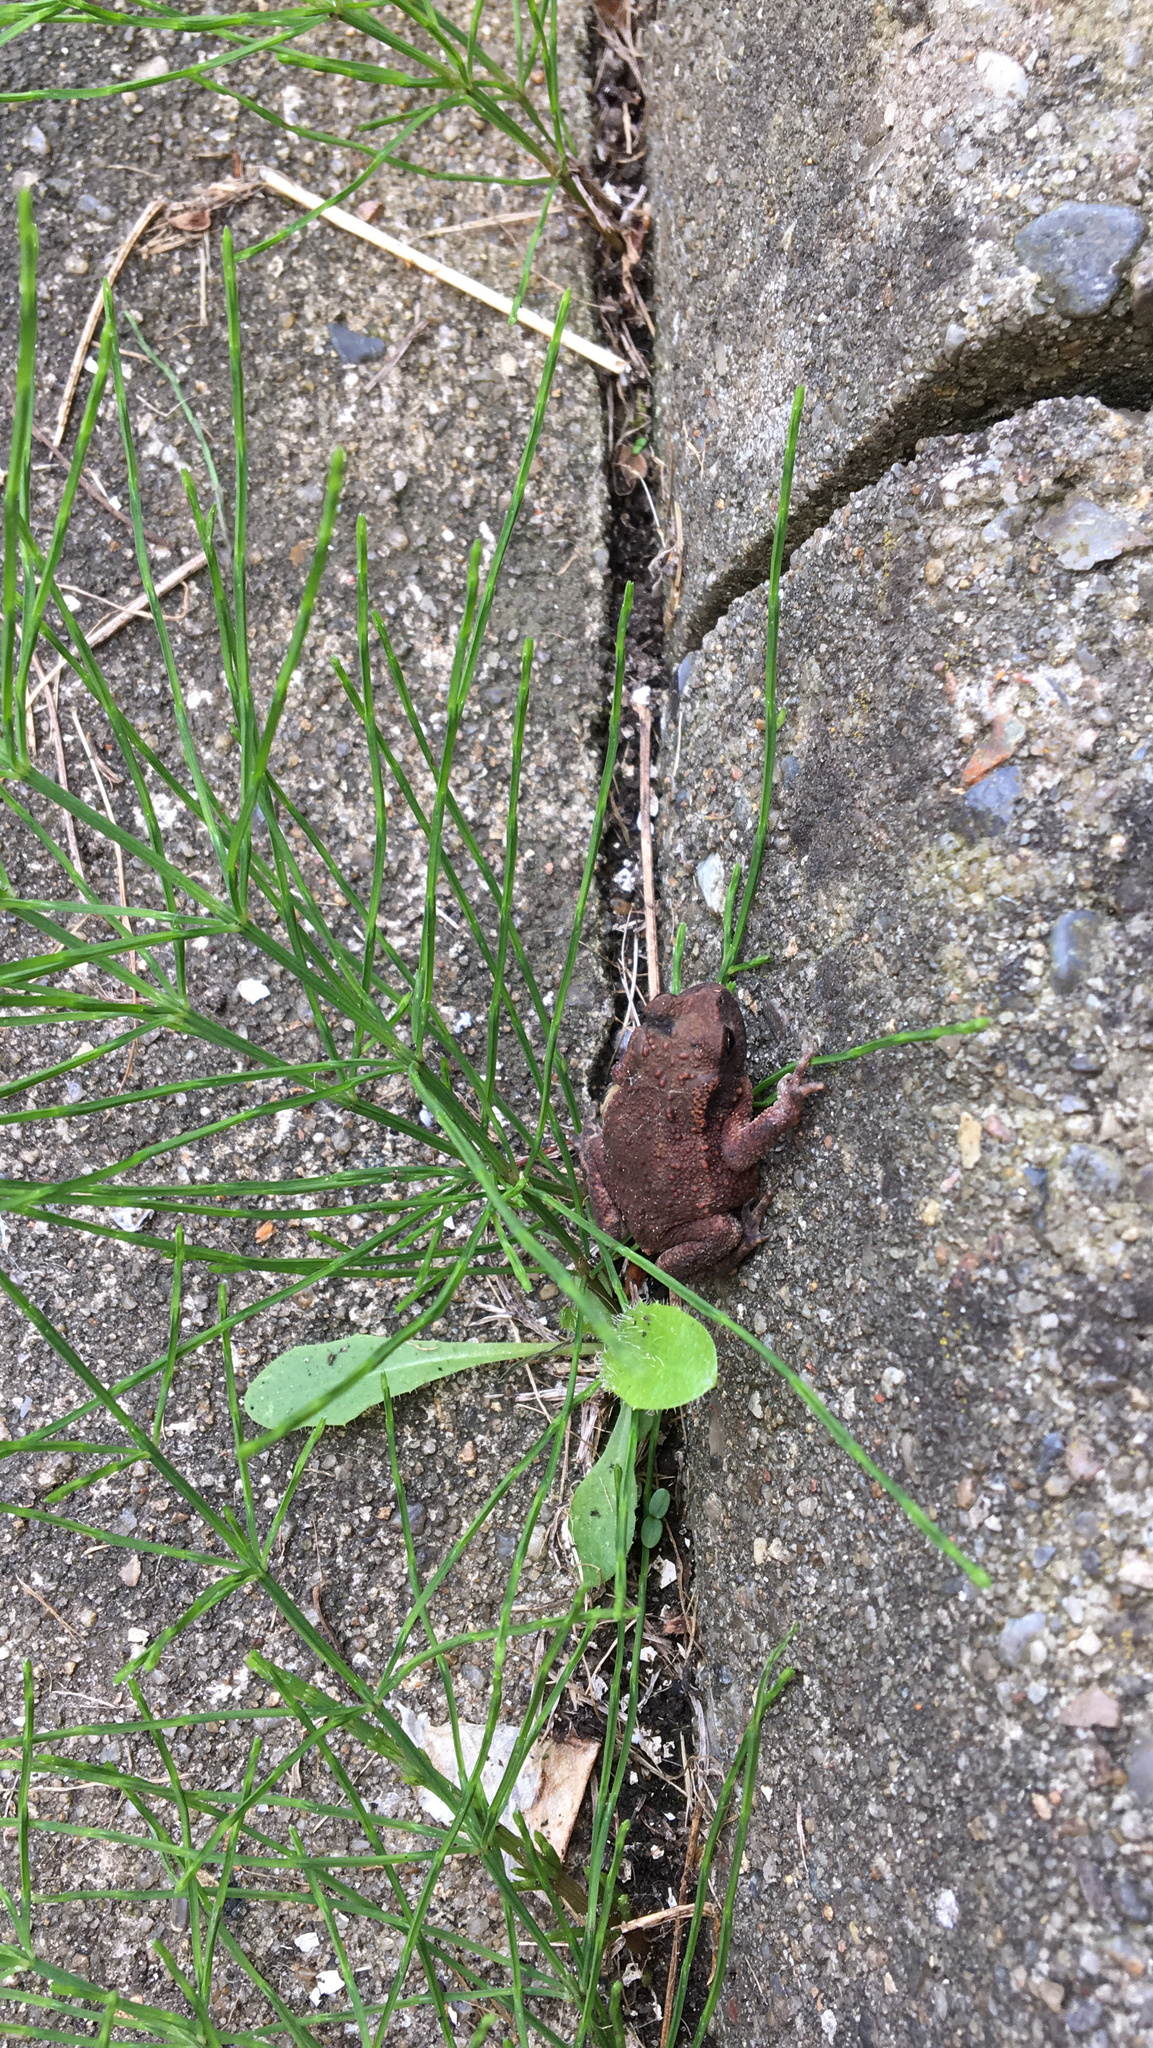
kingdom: Animalia
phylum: Chordata
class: Amphibia
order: Anura
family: Bufonidae
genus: Bufo
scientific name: Bufo bufo
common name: Common toad
